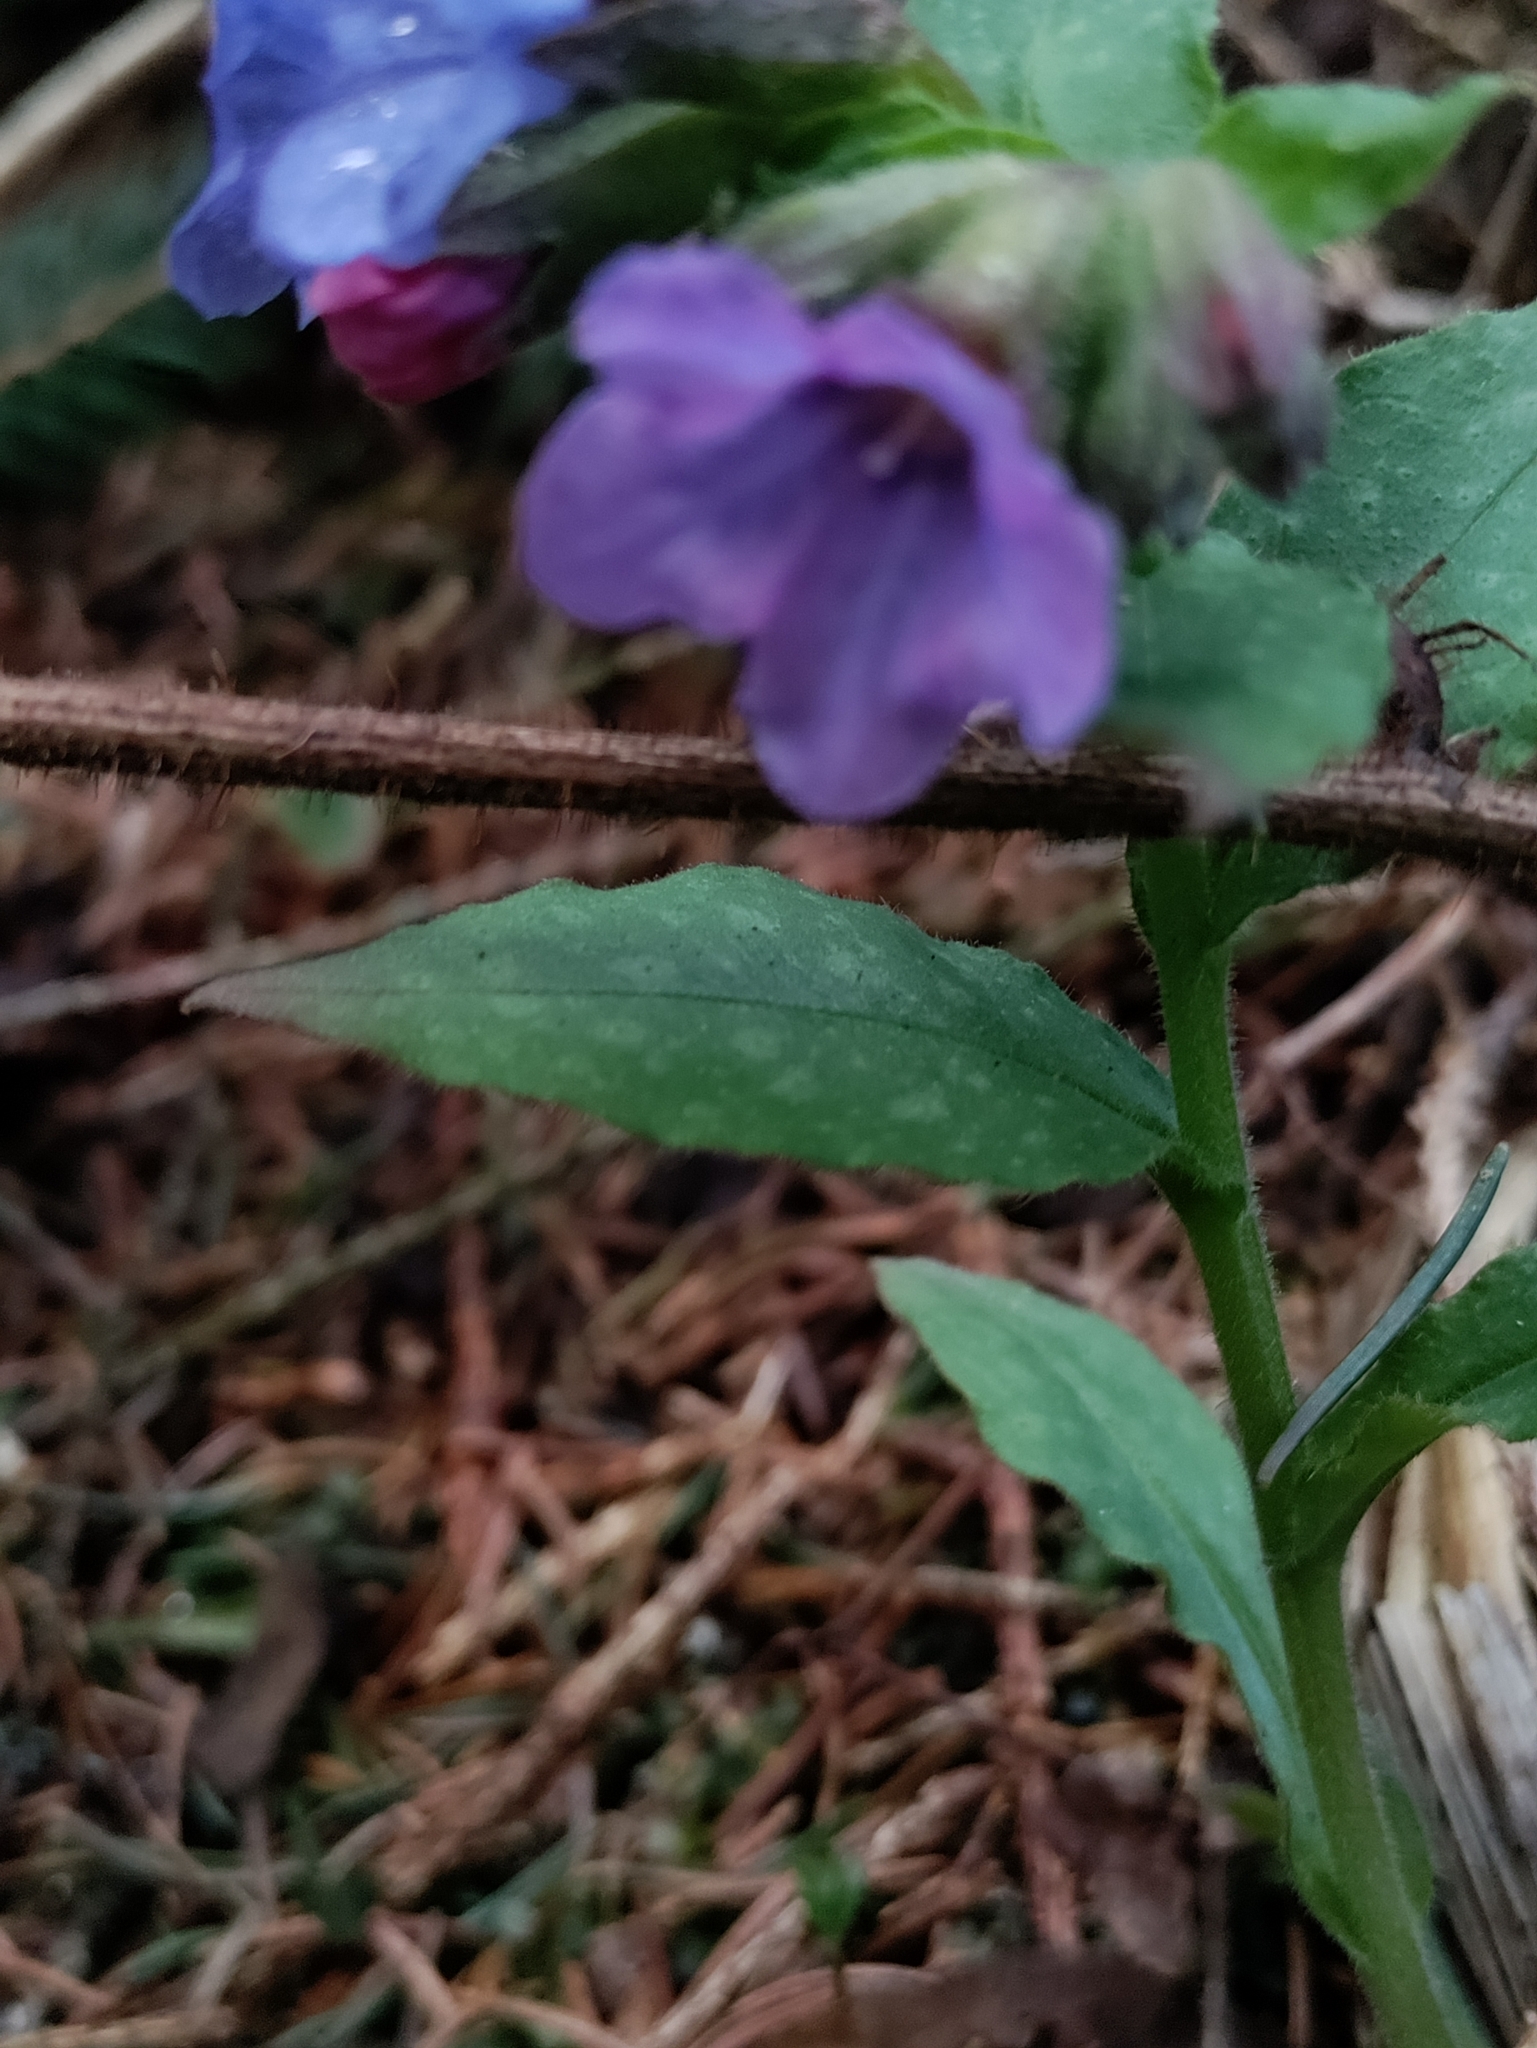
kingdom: Plantae
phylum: Tracheophyta
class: Magnoliopsida
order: Boraginales
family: Boraginaceae
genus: Pulmonaria
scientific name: Pulmonaria officinalis
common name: Lungwort
